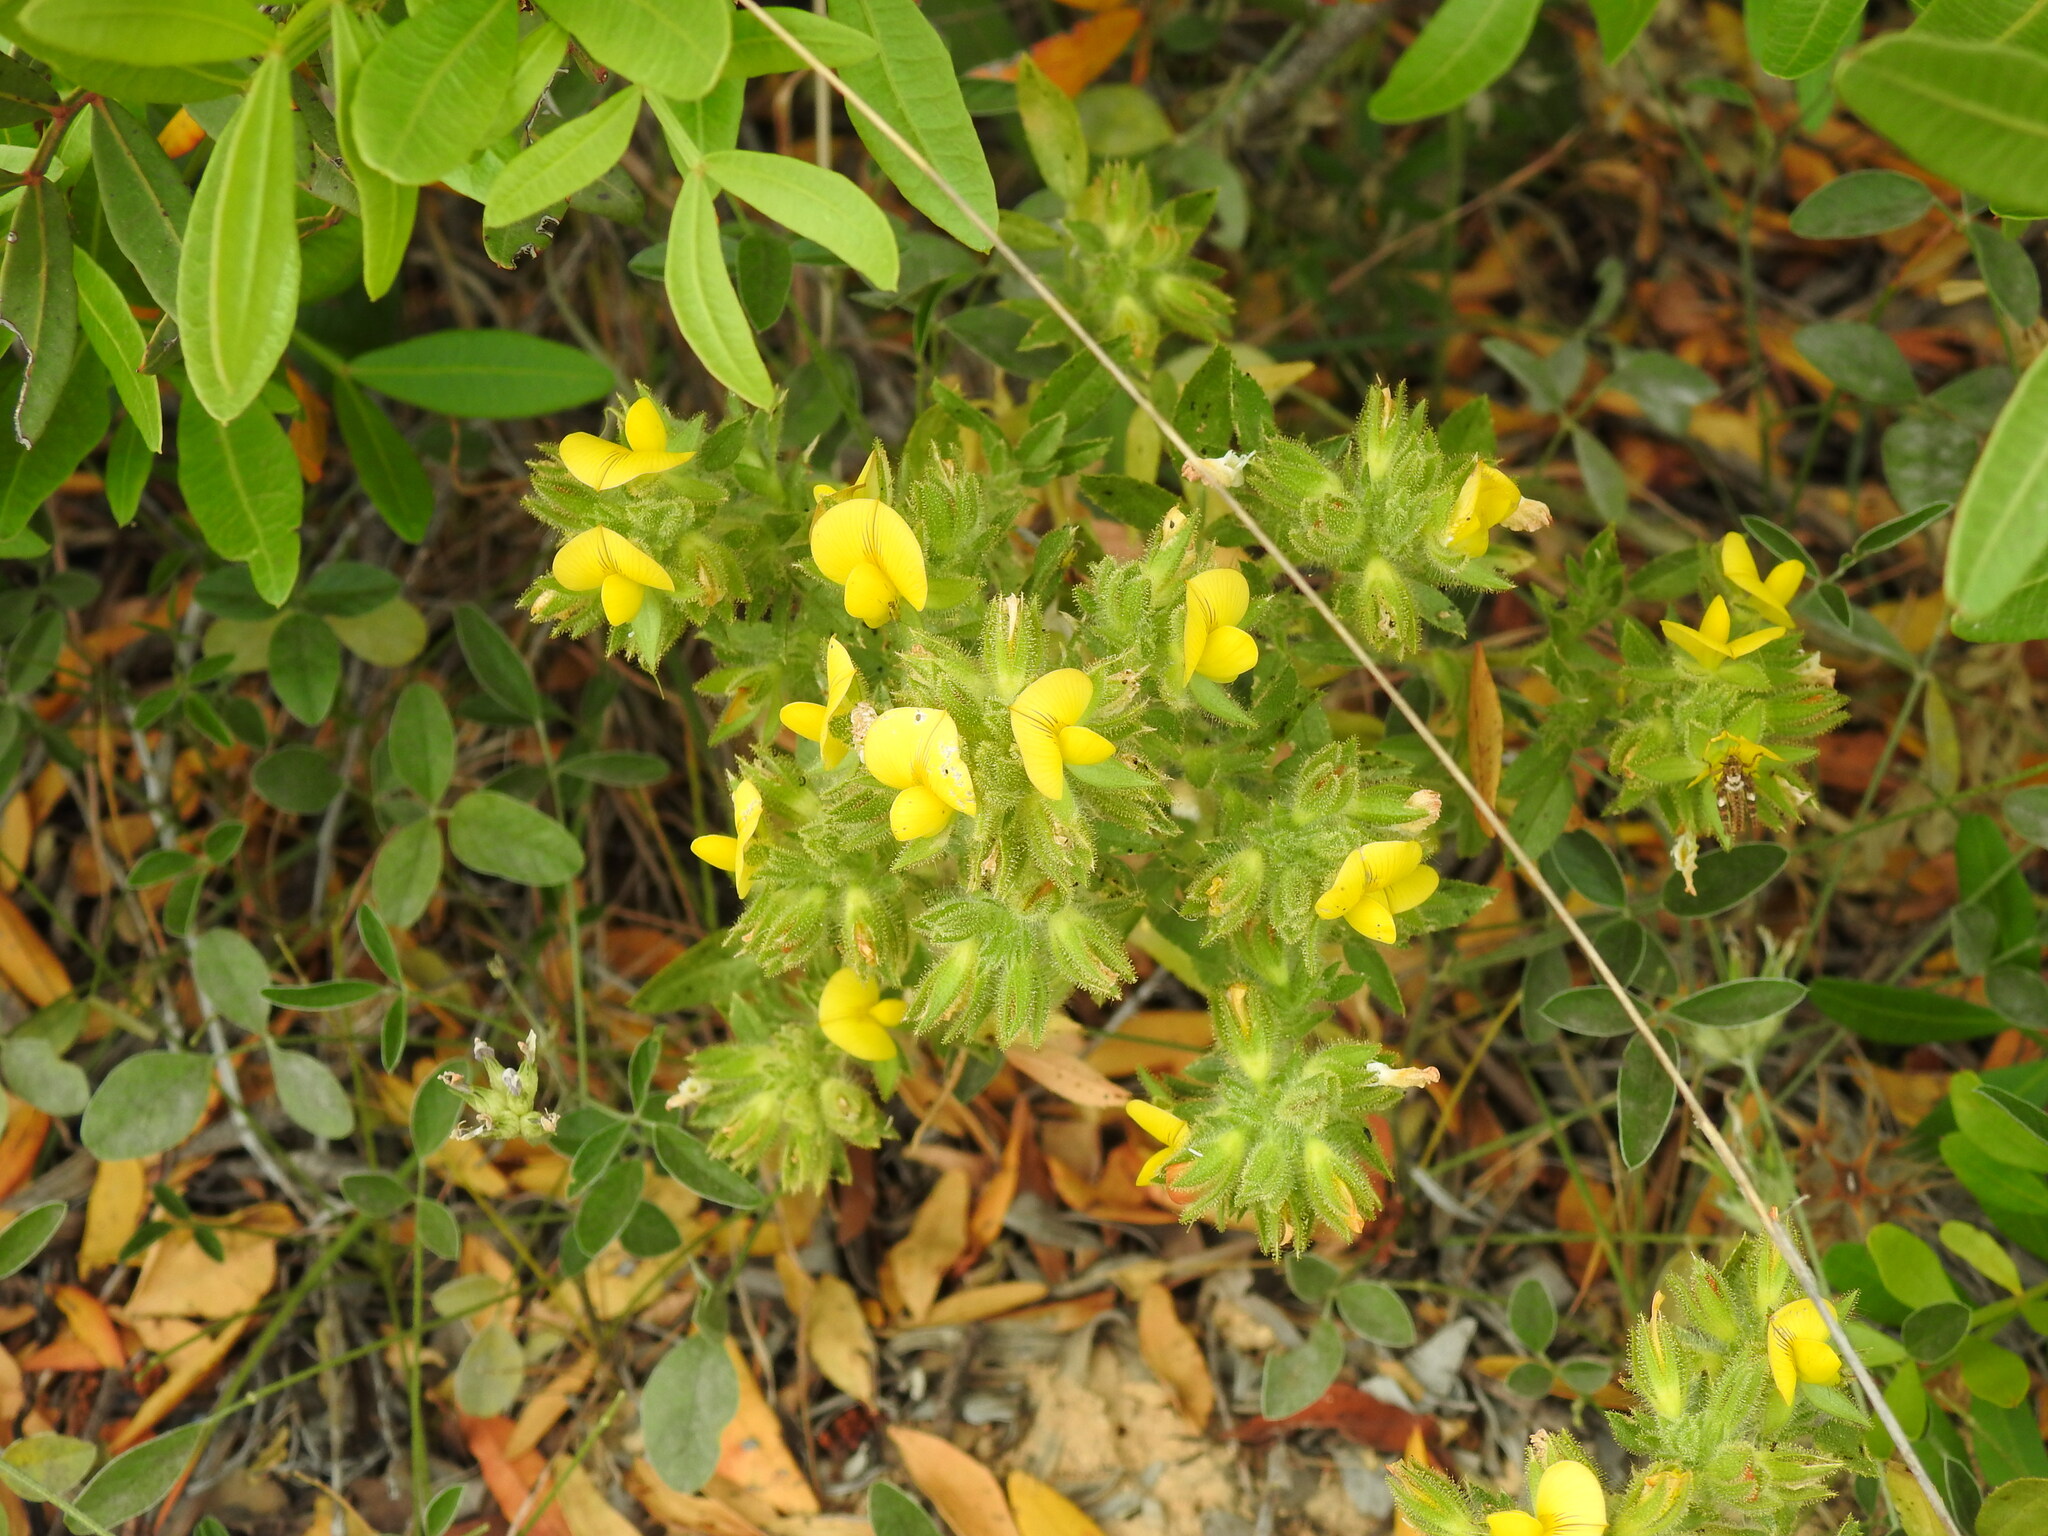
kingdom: Plantae
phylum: Tracheophyta
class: Magnoliopsida
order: Fabales
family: Fabaceae
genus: Ononis
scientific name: Ononis pubescens
